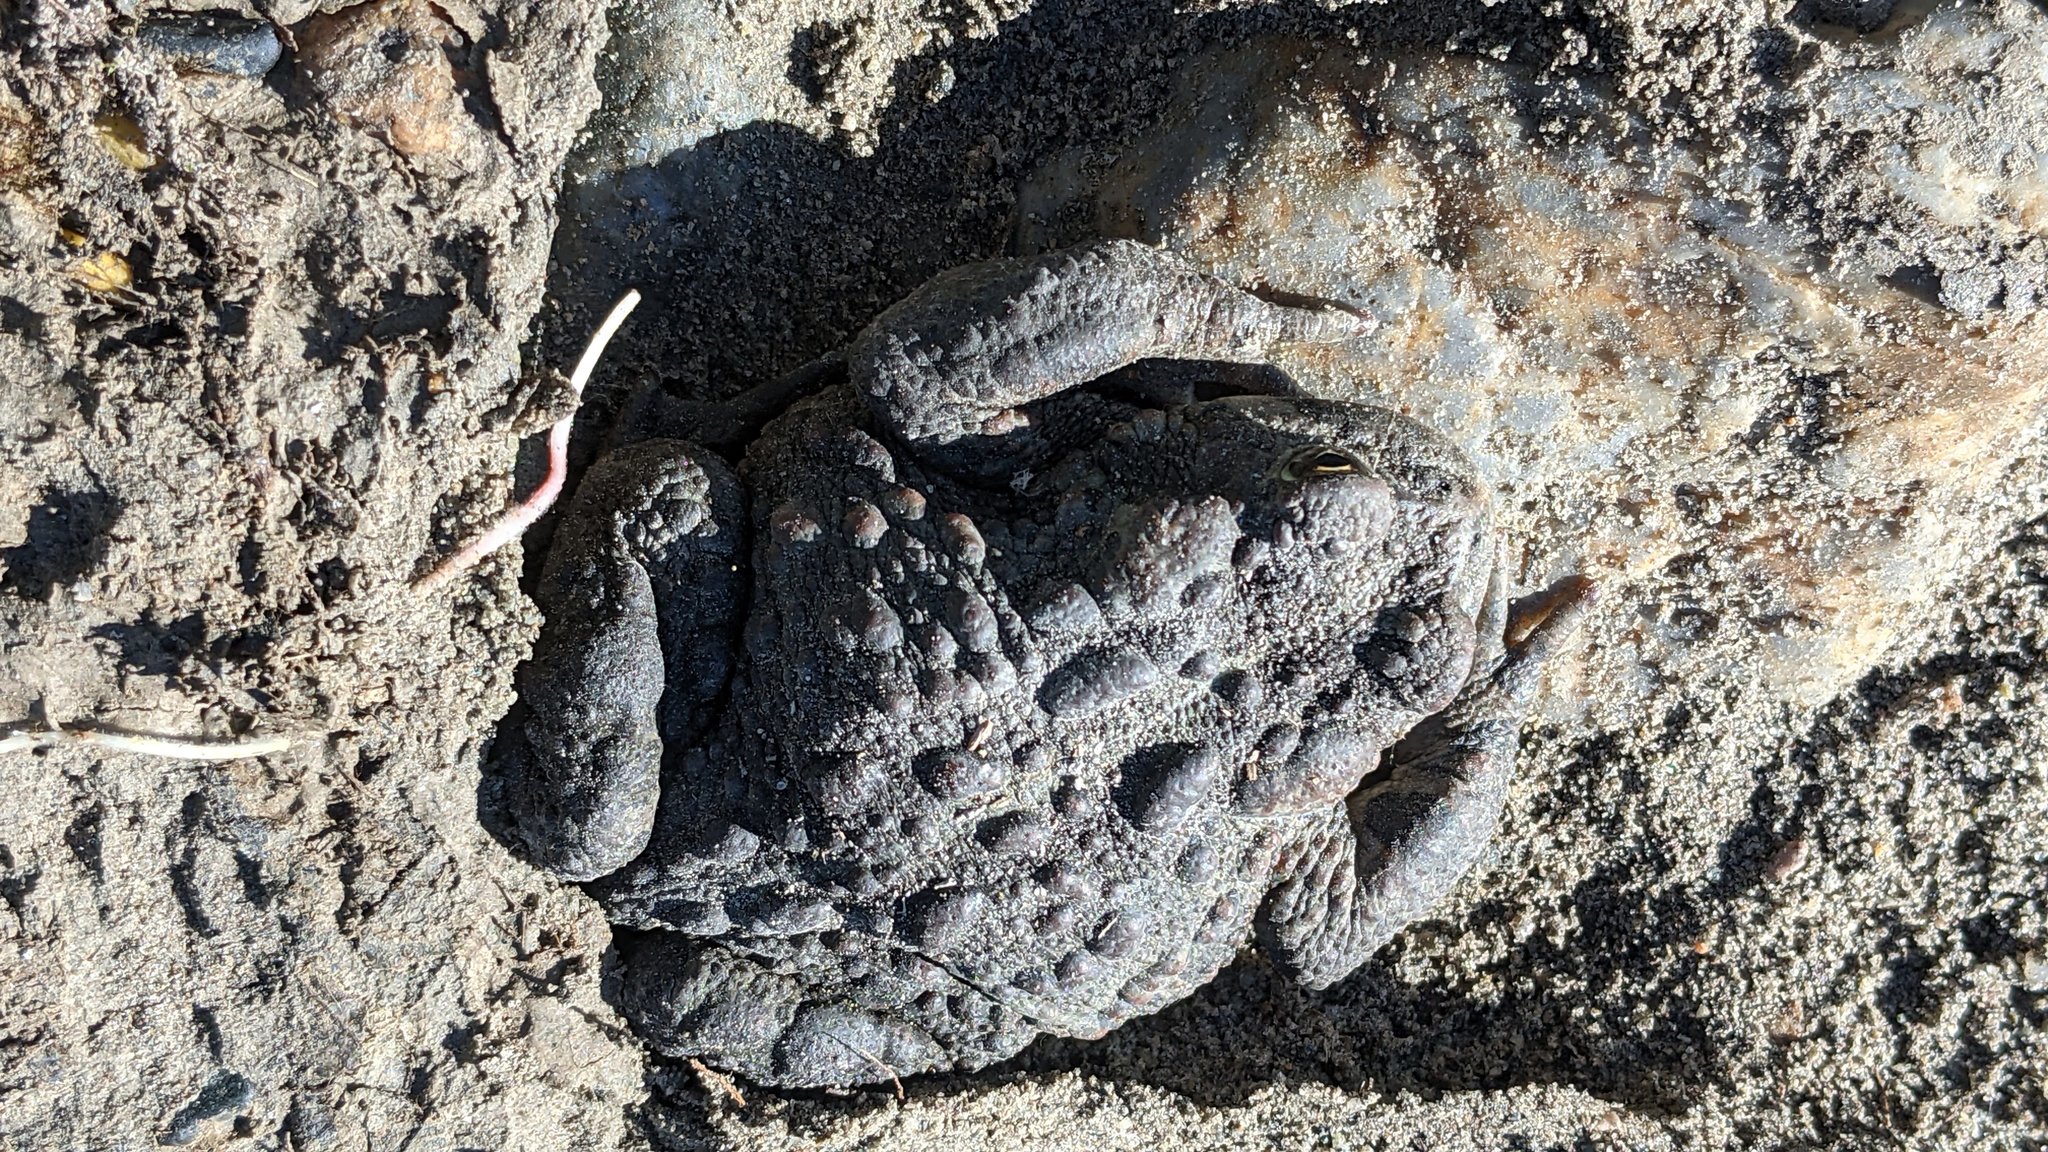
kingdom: Animalia
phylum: Chordata
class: Amphibia
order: Anura
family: Bufonidae
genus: Anaxyrus
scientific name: Anaxyrus boreas
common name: Western toad
